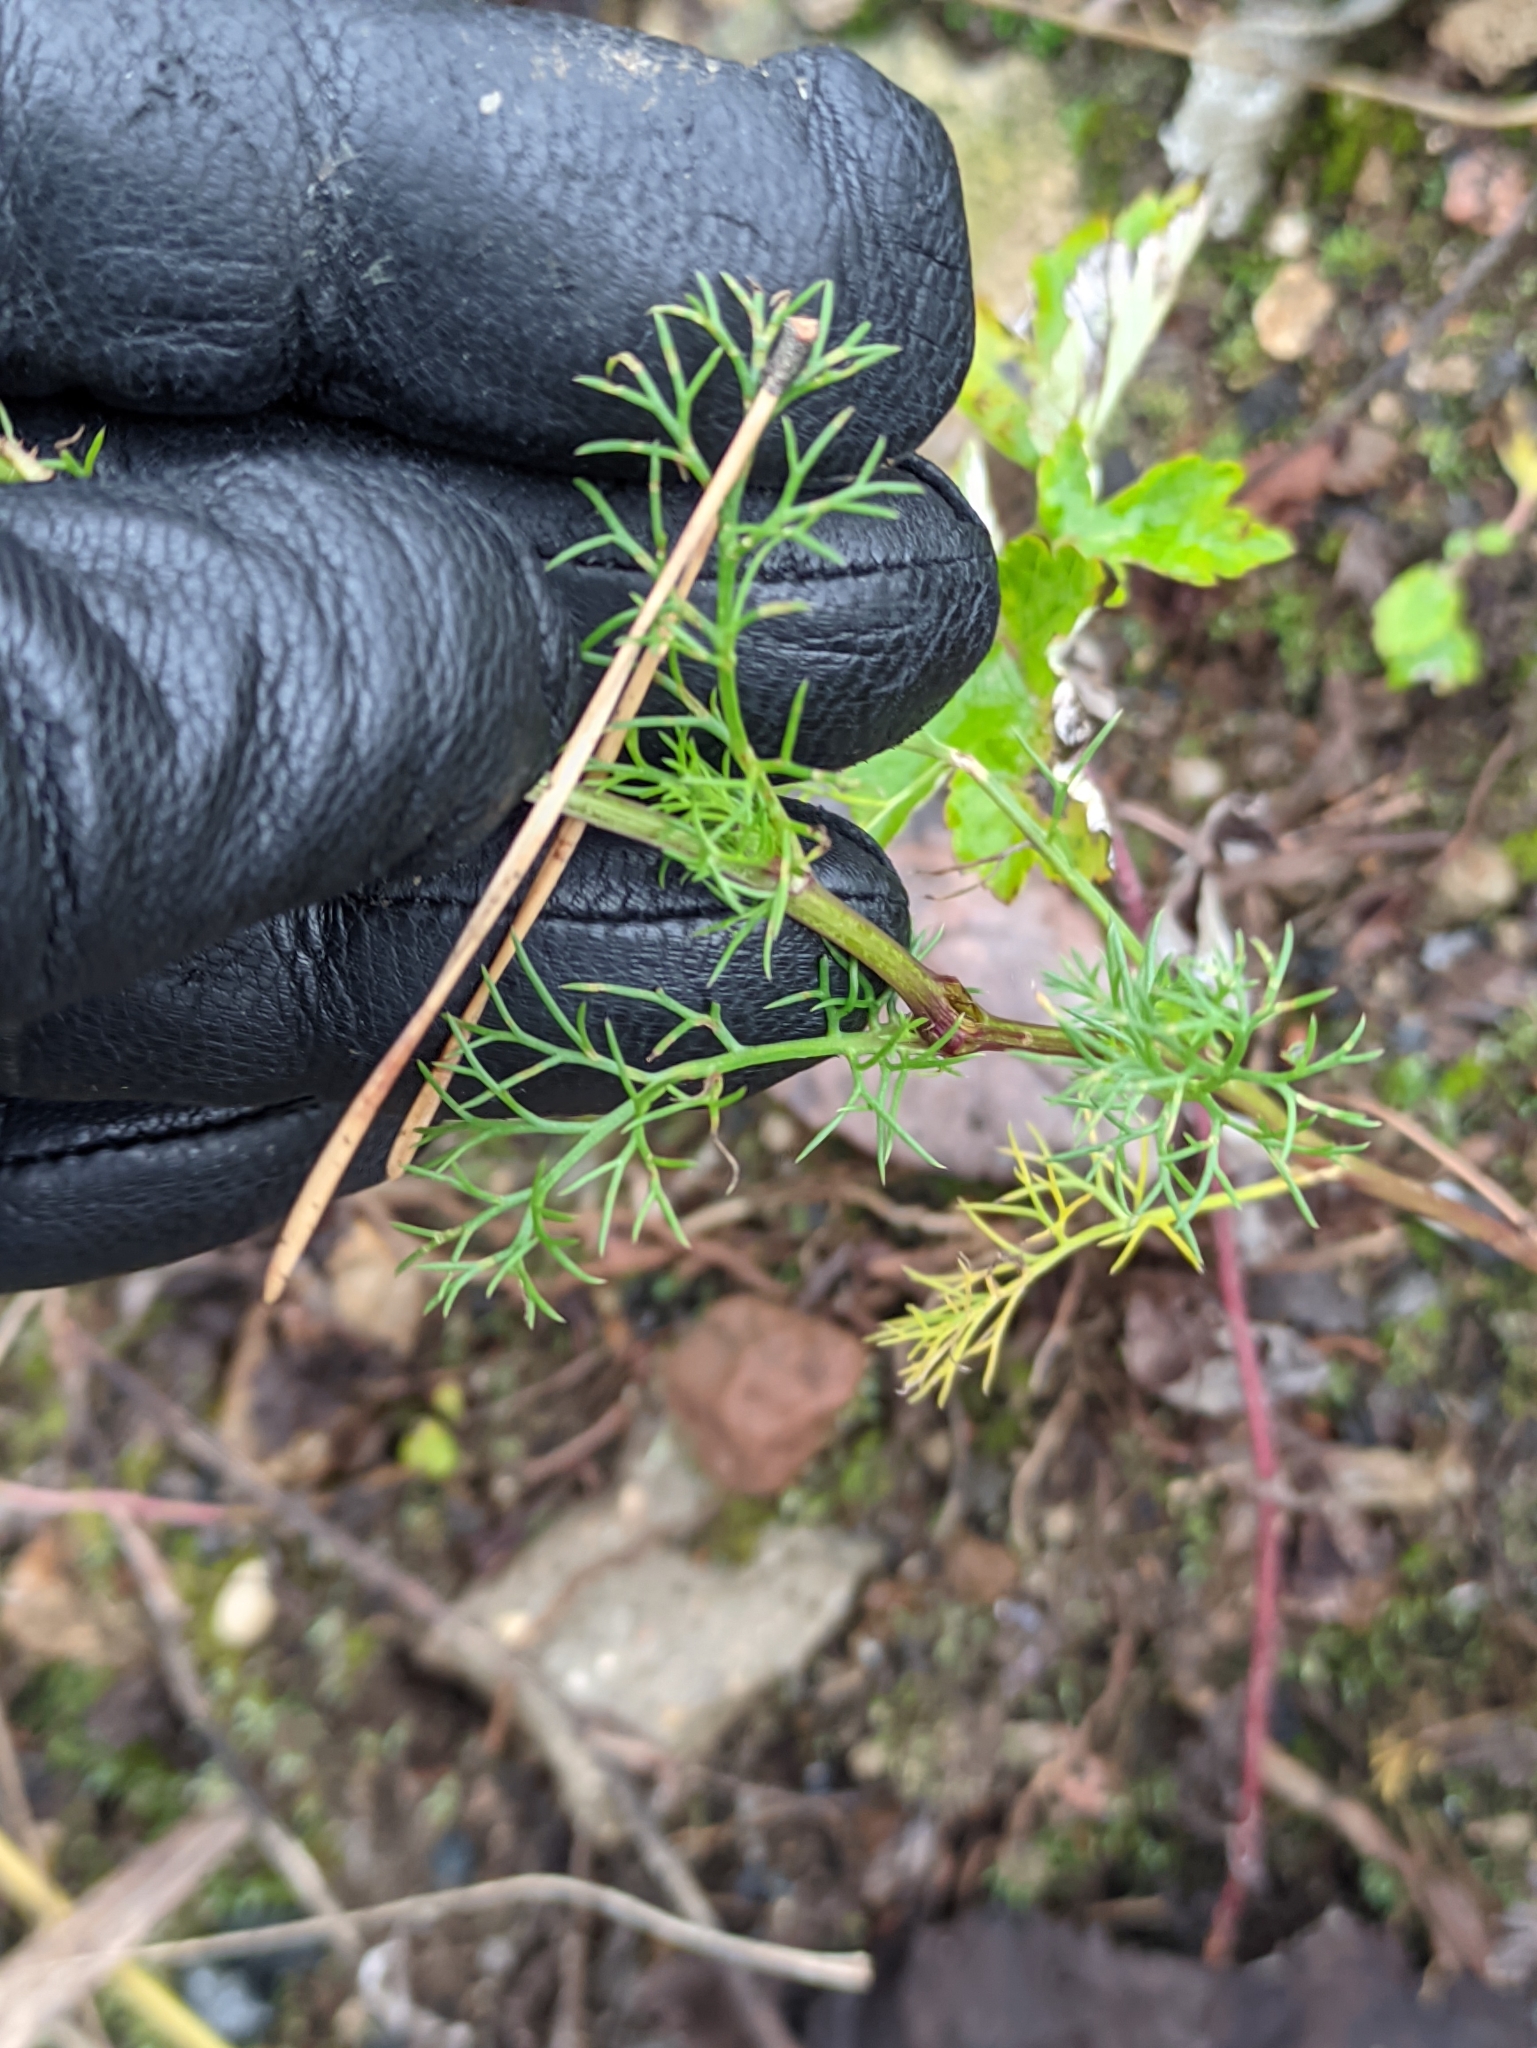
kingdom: Plantae
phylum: Tracheophyta
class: Magnoliopsida
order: Asterales
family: Asteraceae
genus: Tripleurospermum
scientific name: Tripleurospermum inodorum
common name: Scentless mayweed
